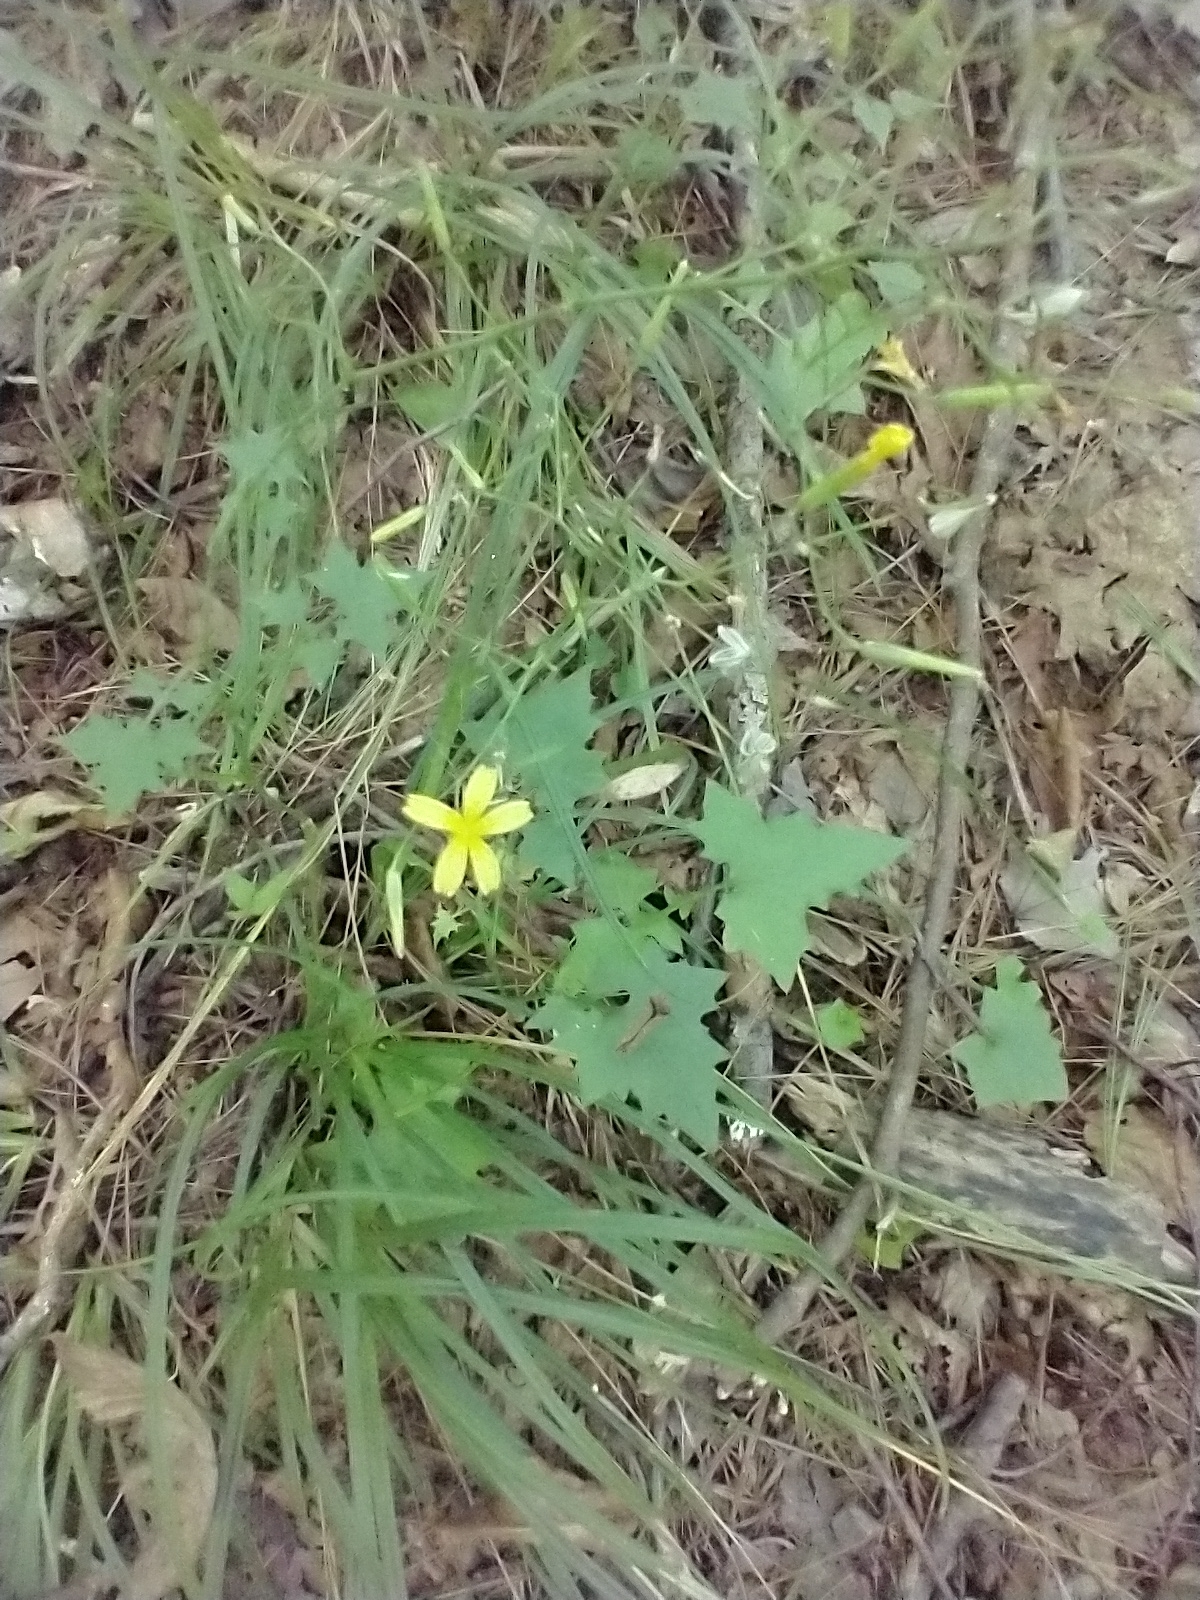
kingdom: Plantae
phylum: Tracheophyta
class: Magnoliopsida
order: Asterales
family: Asteraceae
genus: Mycelis
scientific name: Mycelis muralis
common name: Wall lettuce
